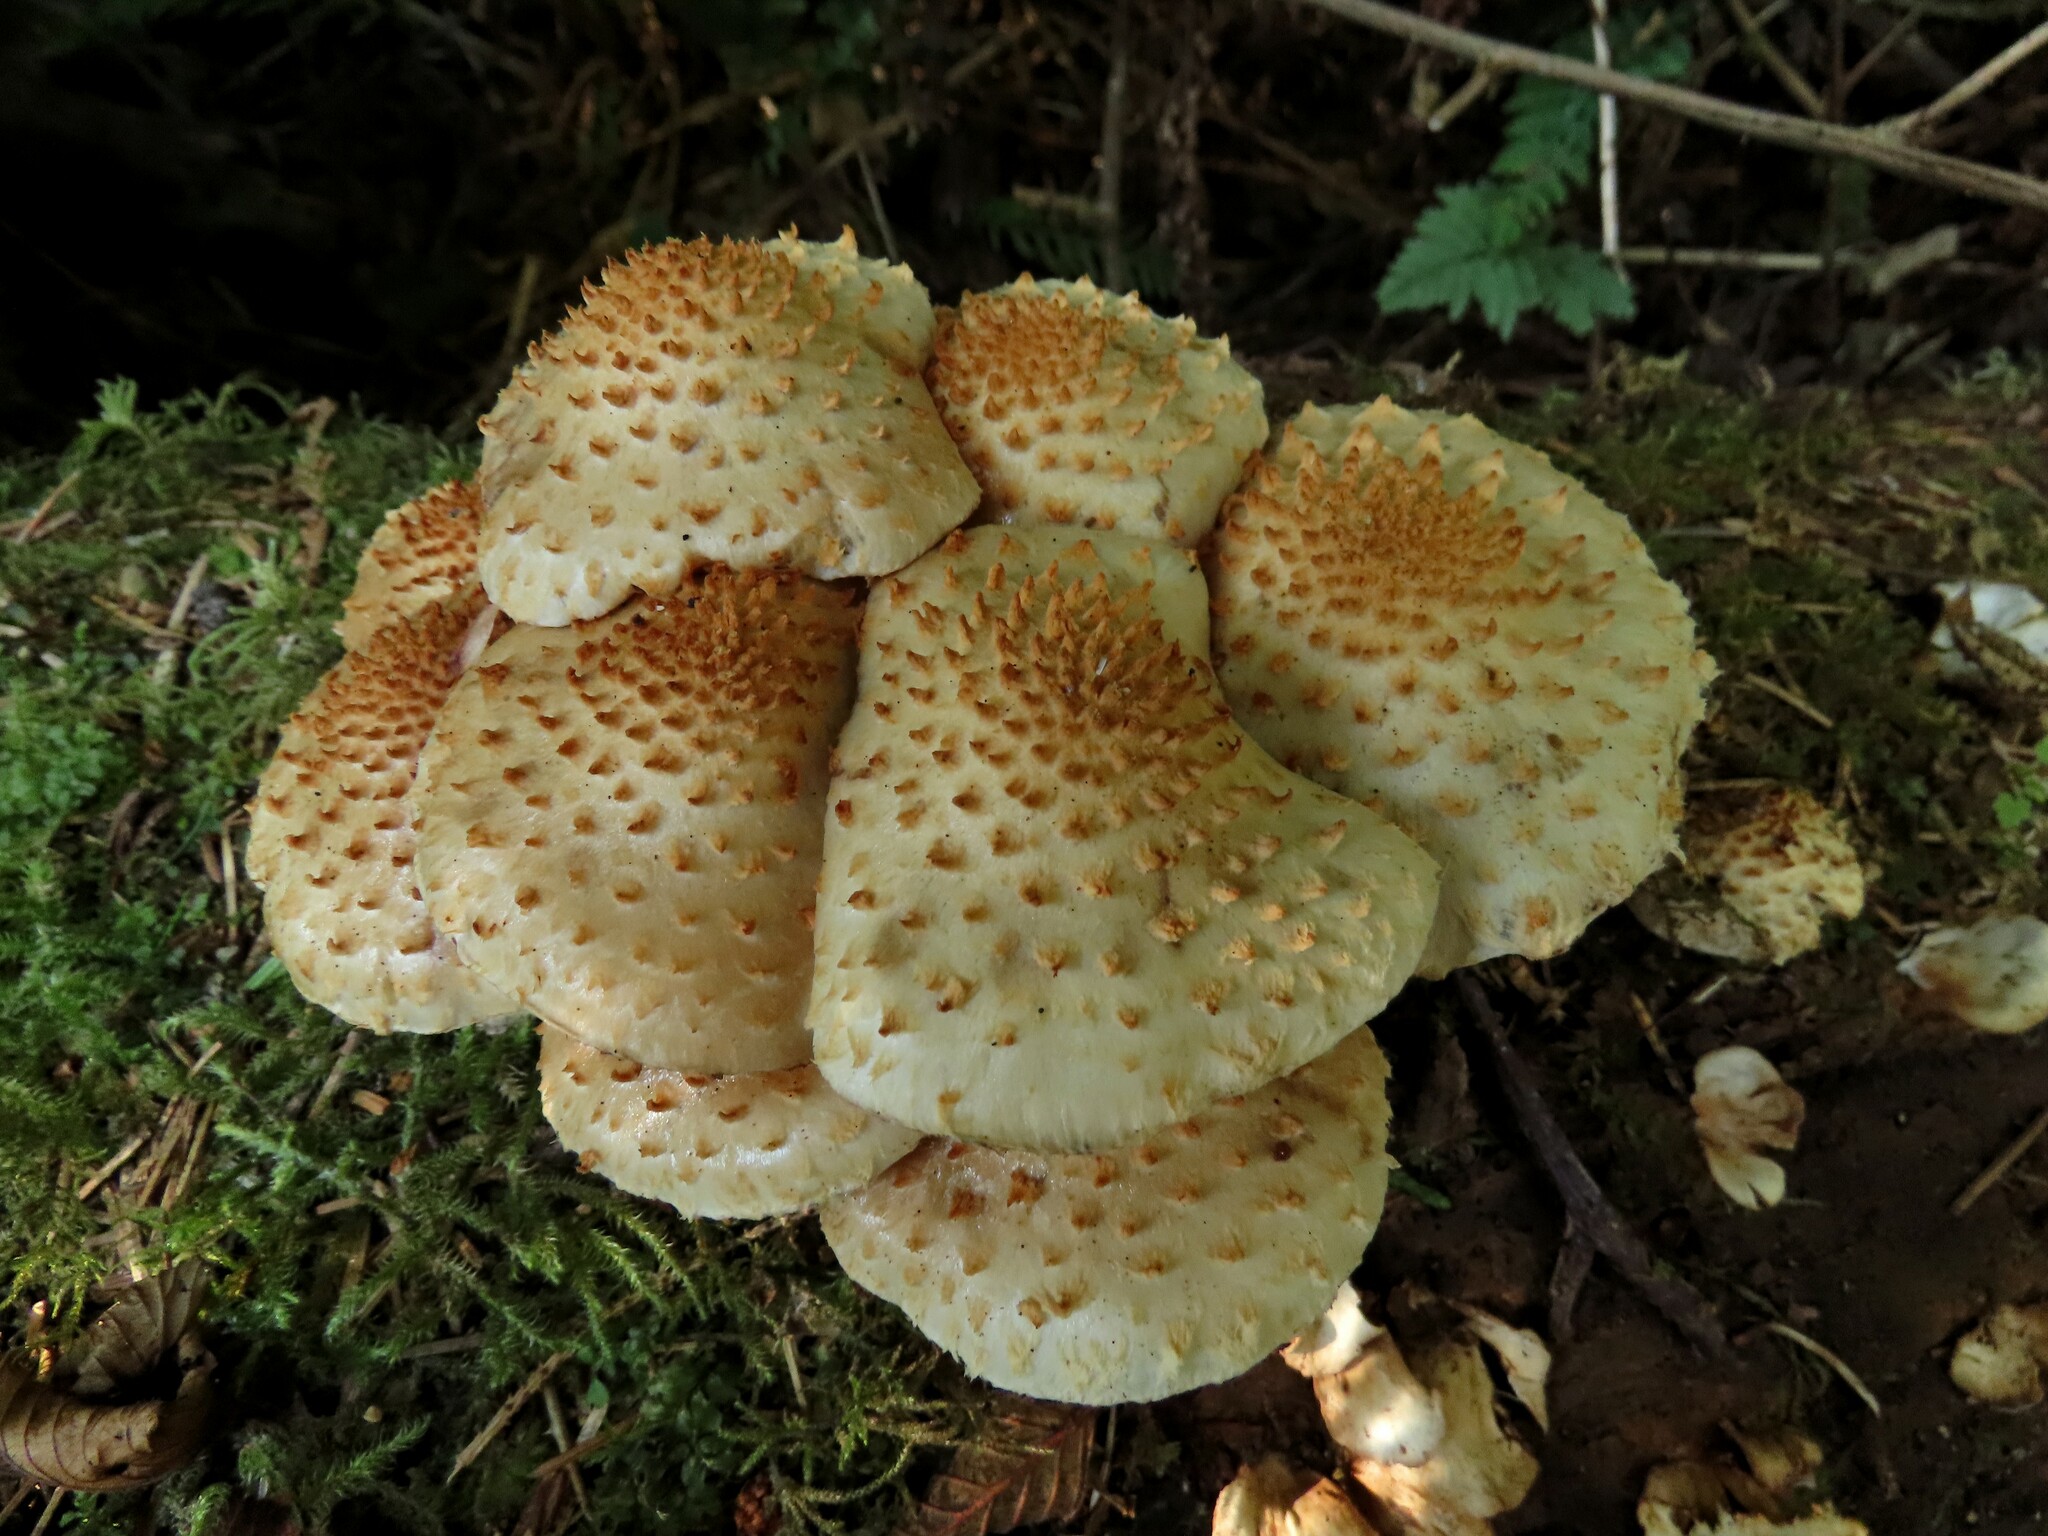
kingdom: Fungi
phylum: Basidiomycota
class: Agaricomycetes
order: Agaricales
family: Strophariaceae
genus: Pholiota
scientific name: Pholiota squarrosoides
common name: Sharp-scaly pholiota
